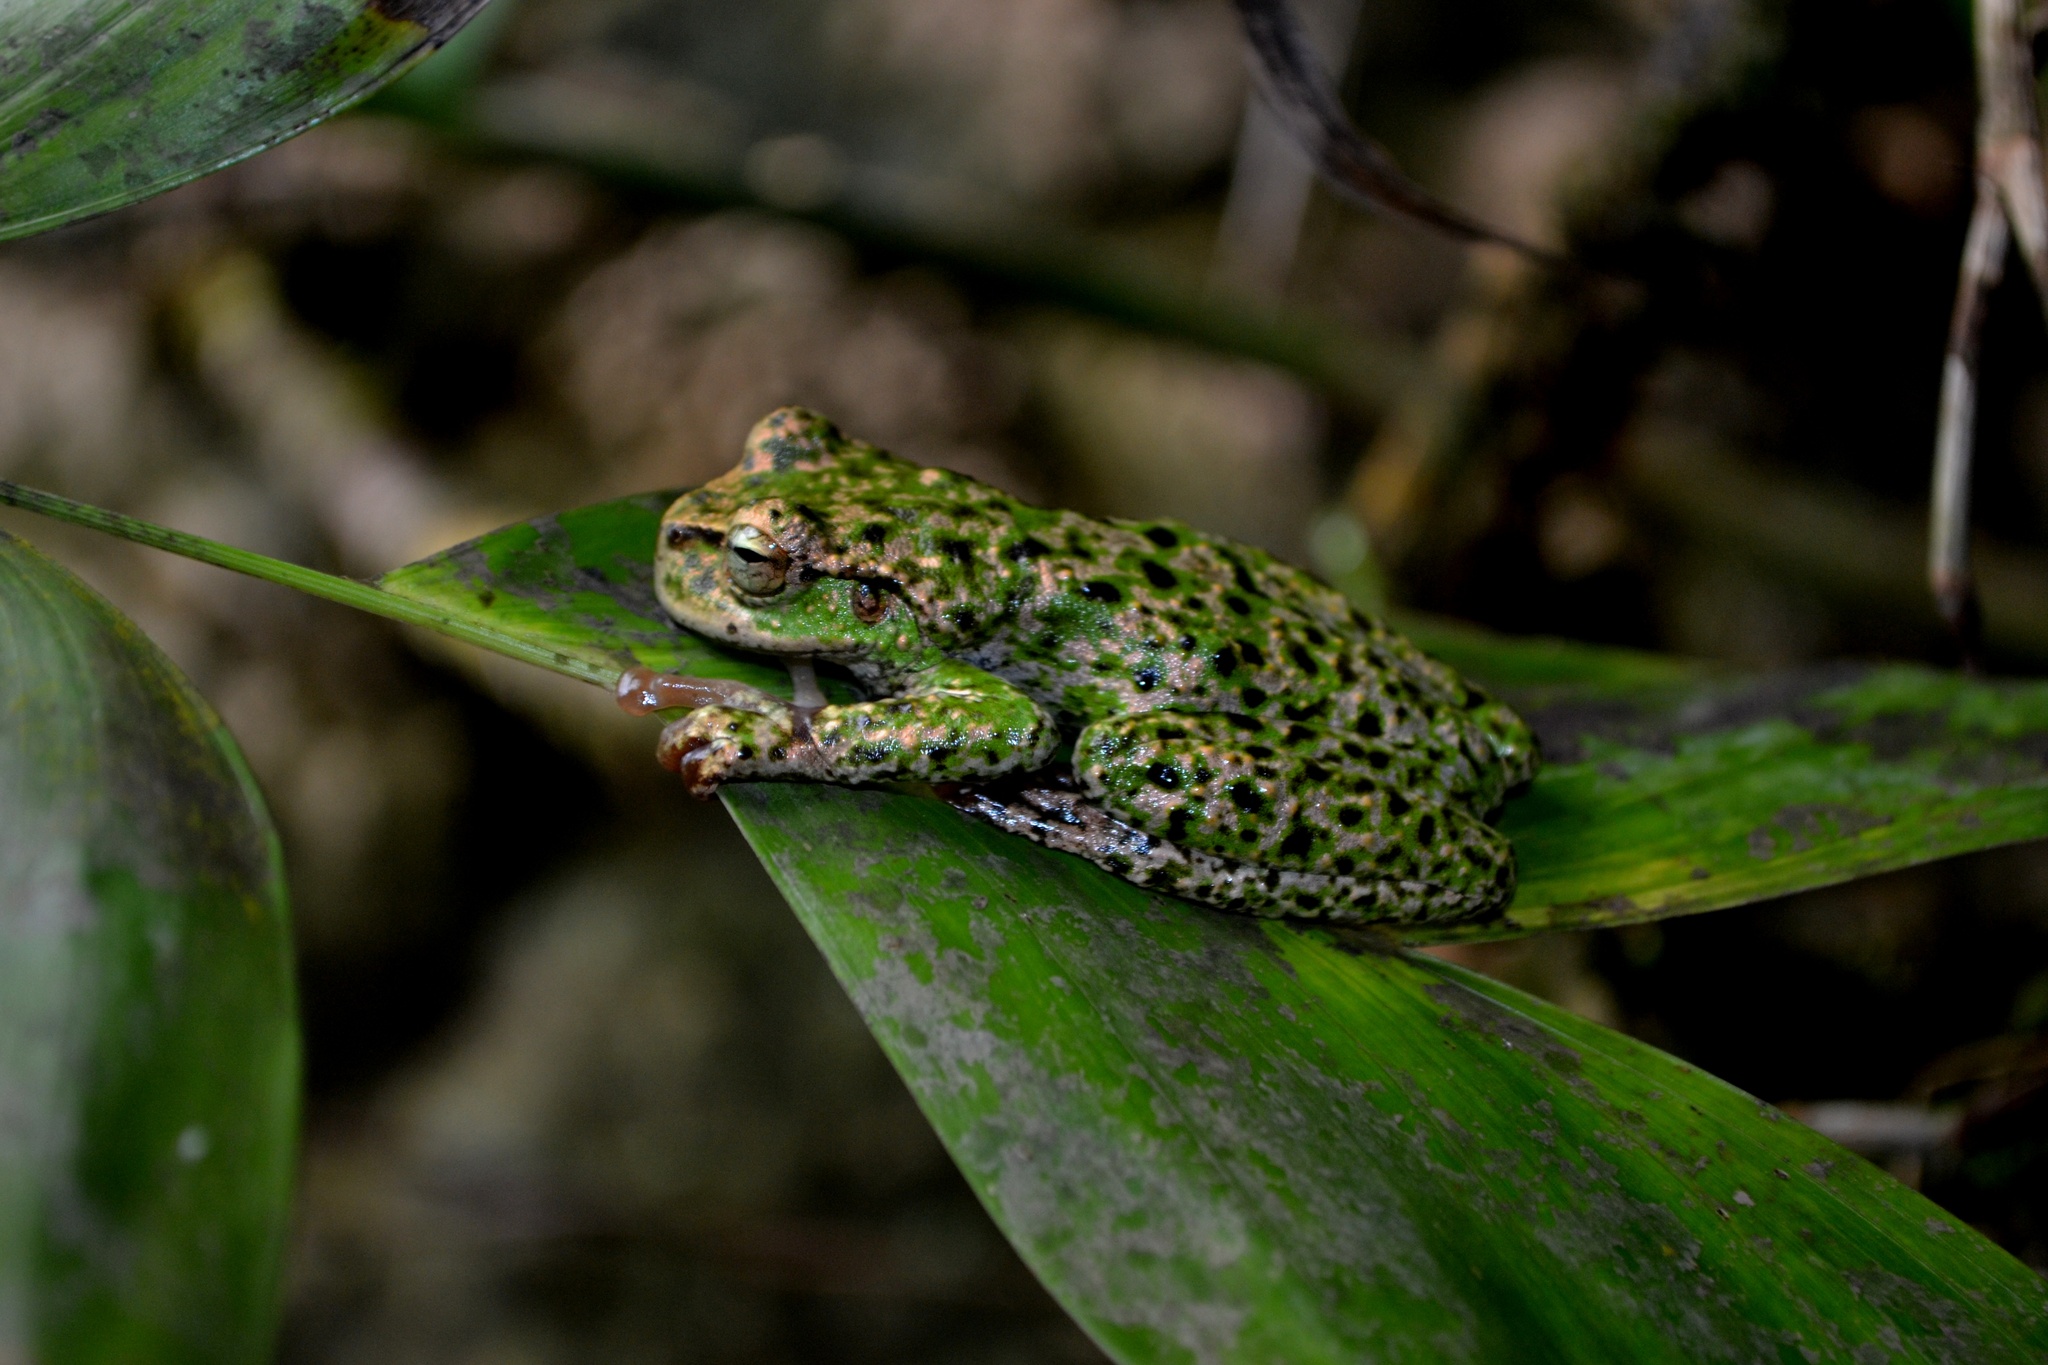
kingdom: Animalia
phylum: Chordata
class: Amphibia
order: Anura
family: Hylidae
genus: Plectrohyla
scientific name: Plectrohyla acanthodes
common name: Thorny spikethumb frog
